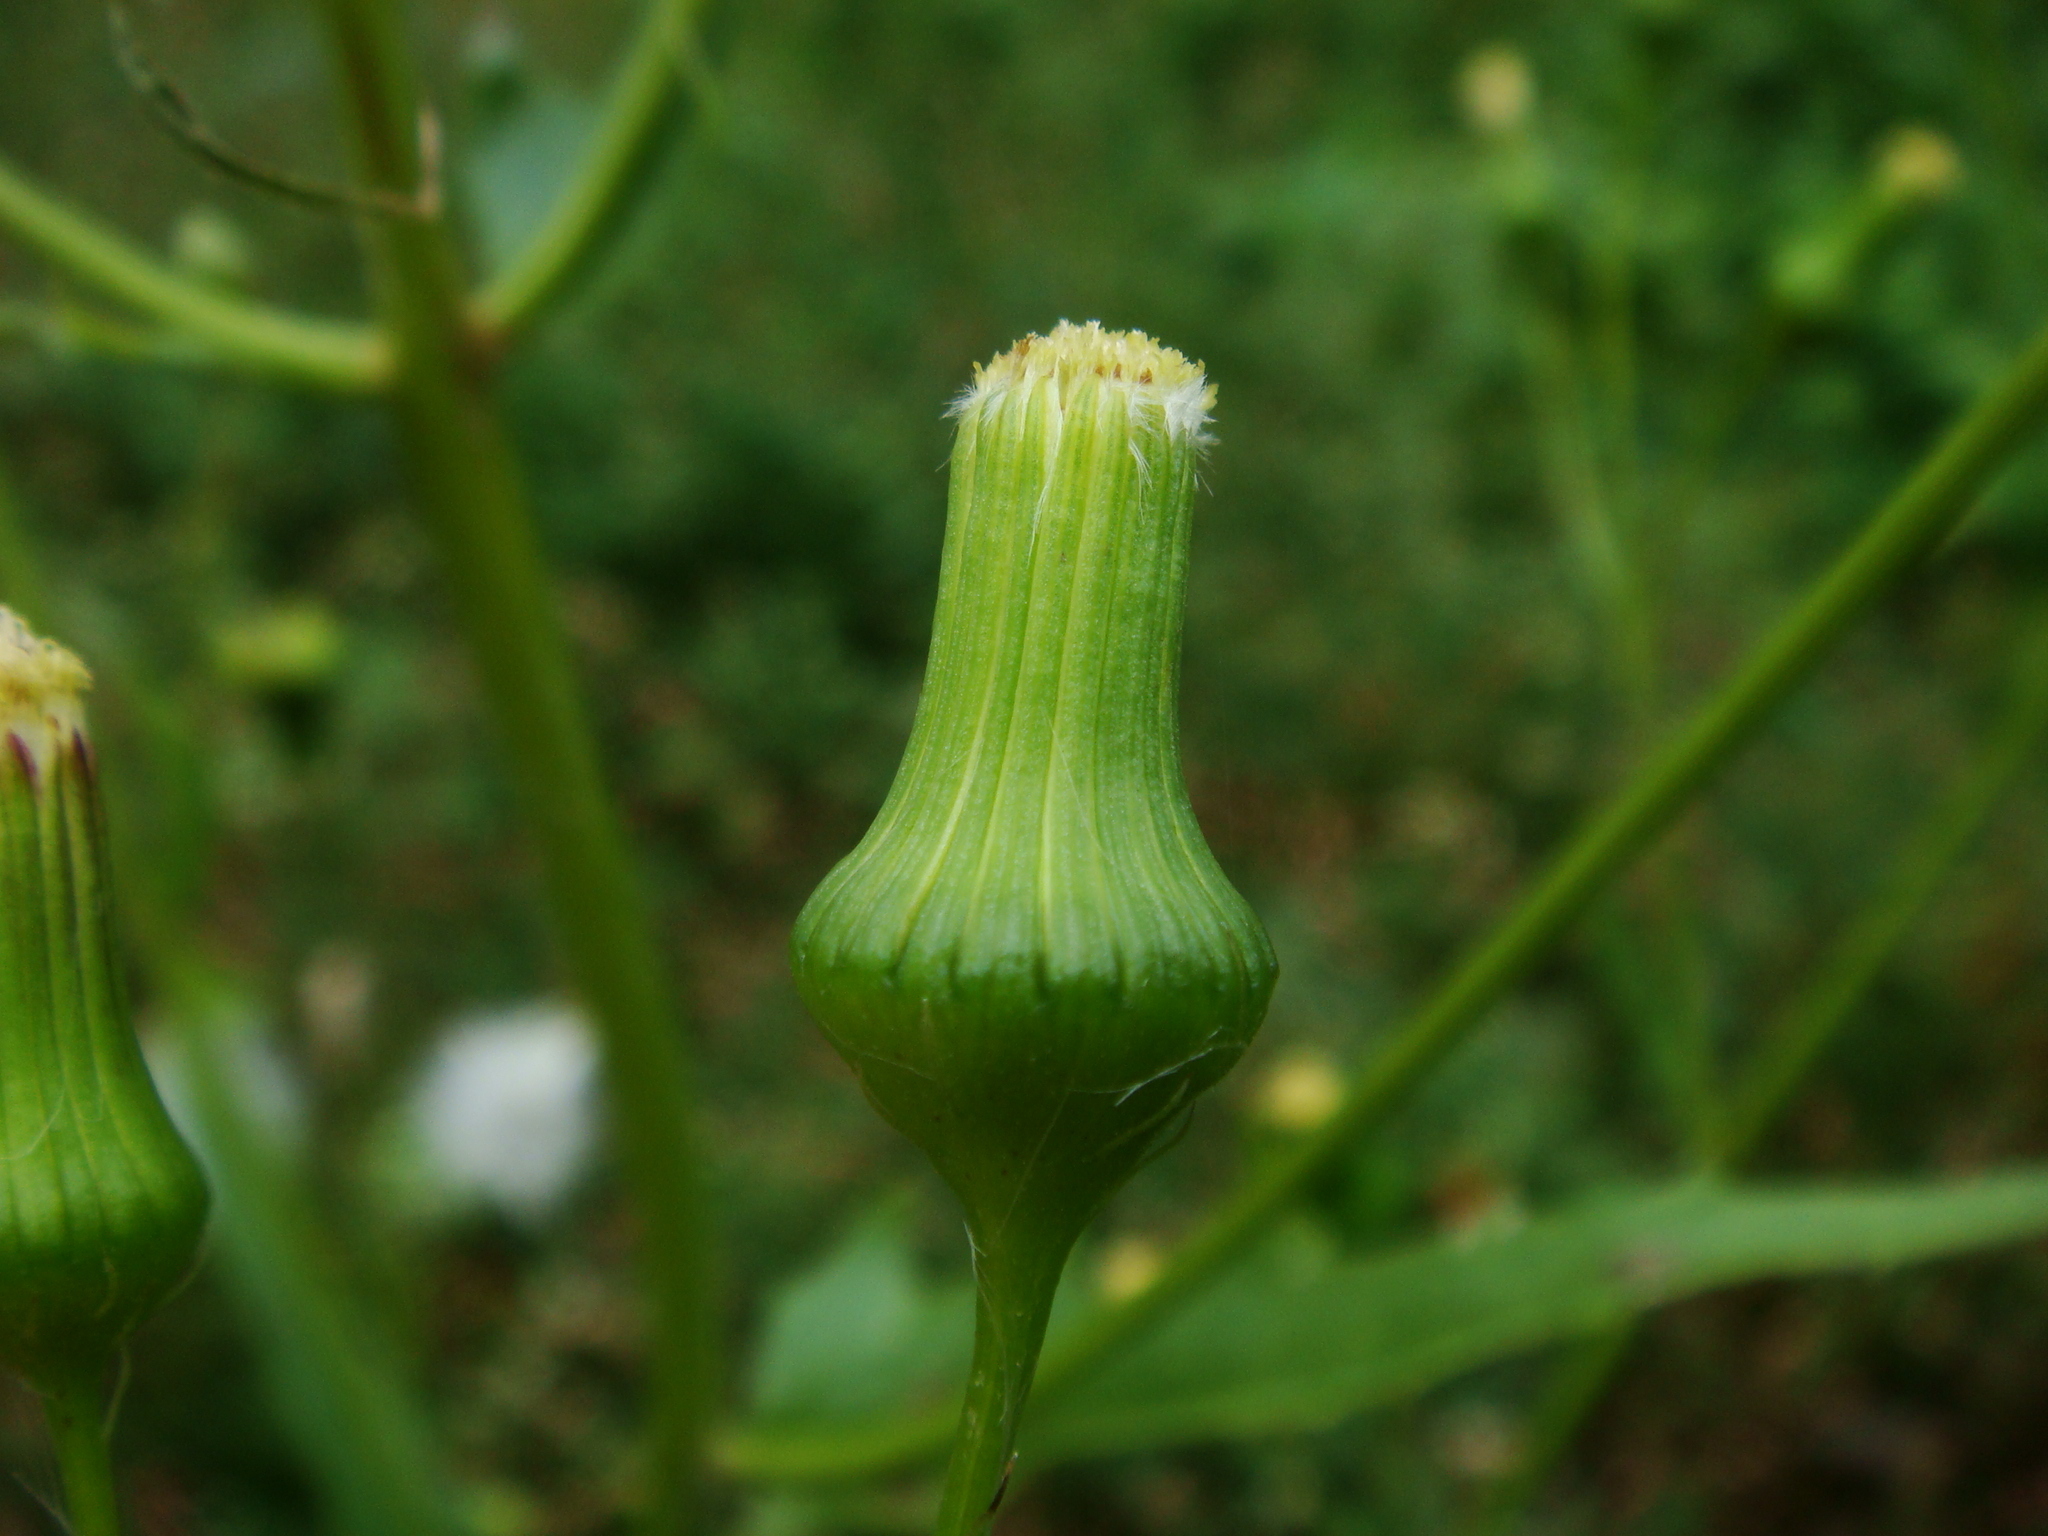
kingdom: Plantae
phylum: Tracheophyta
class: Magnoliopsida
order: Asterales
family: Asteraceae
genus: Erechtites
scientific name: Erechtites hieraciifolius
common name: American burnweed
